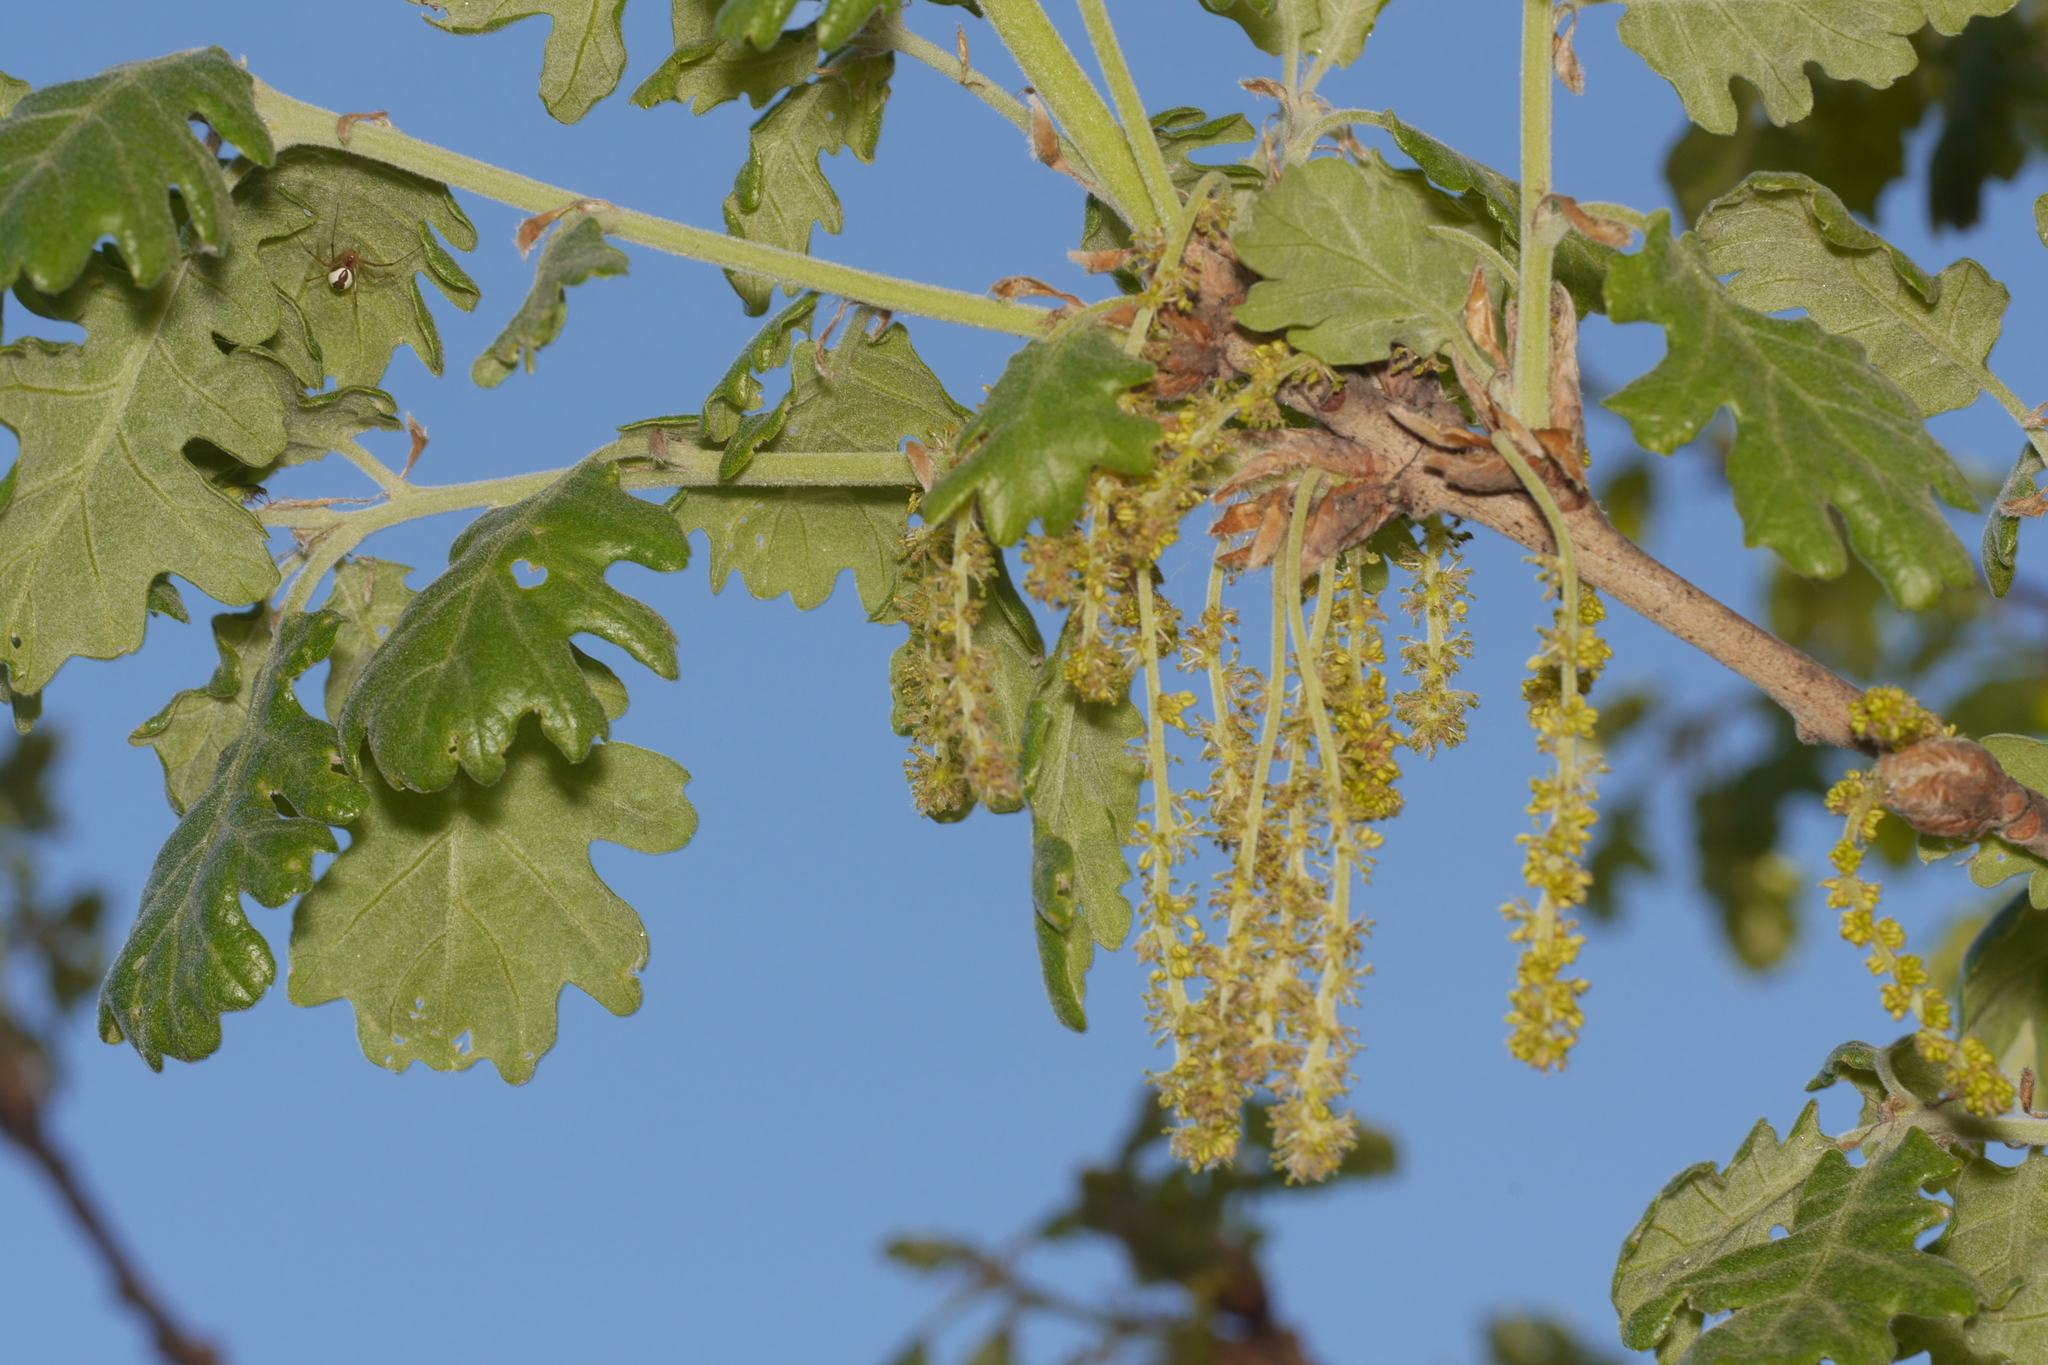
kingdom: Plantae
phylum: Tracheophyta
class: Magnoliopsida
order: Fagales
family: Fagaceae
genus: Quercus
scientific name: Quercus pubescens
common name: Downy oak
